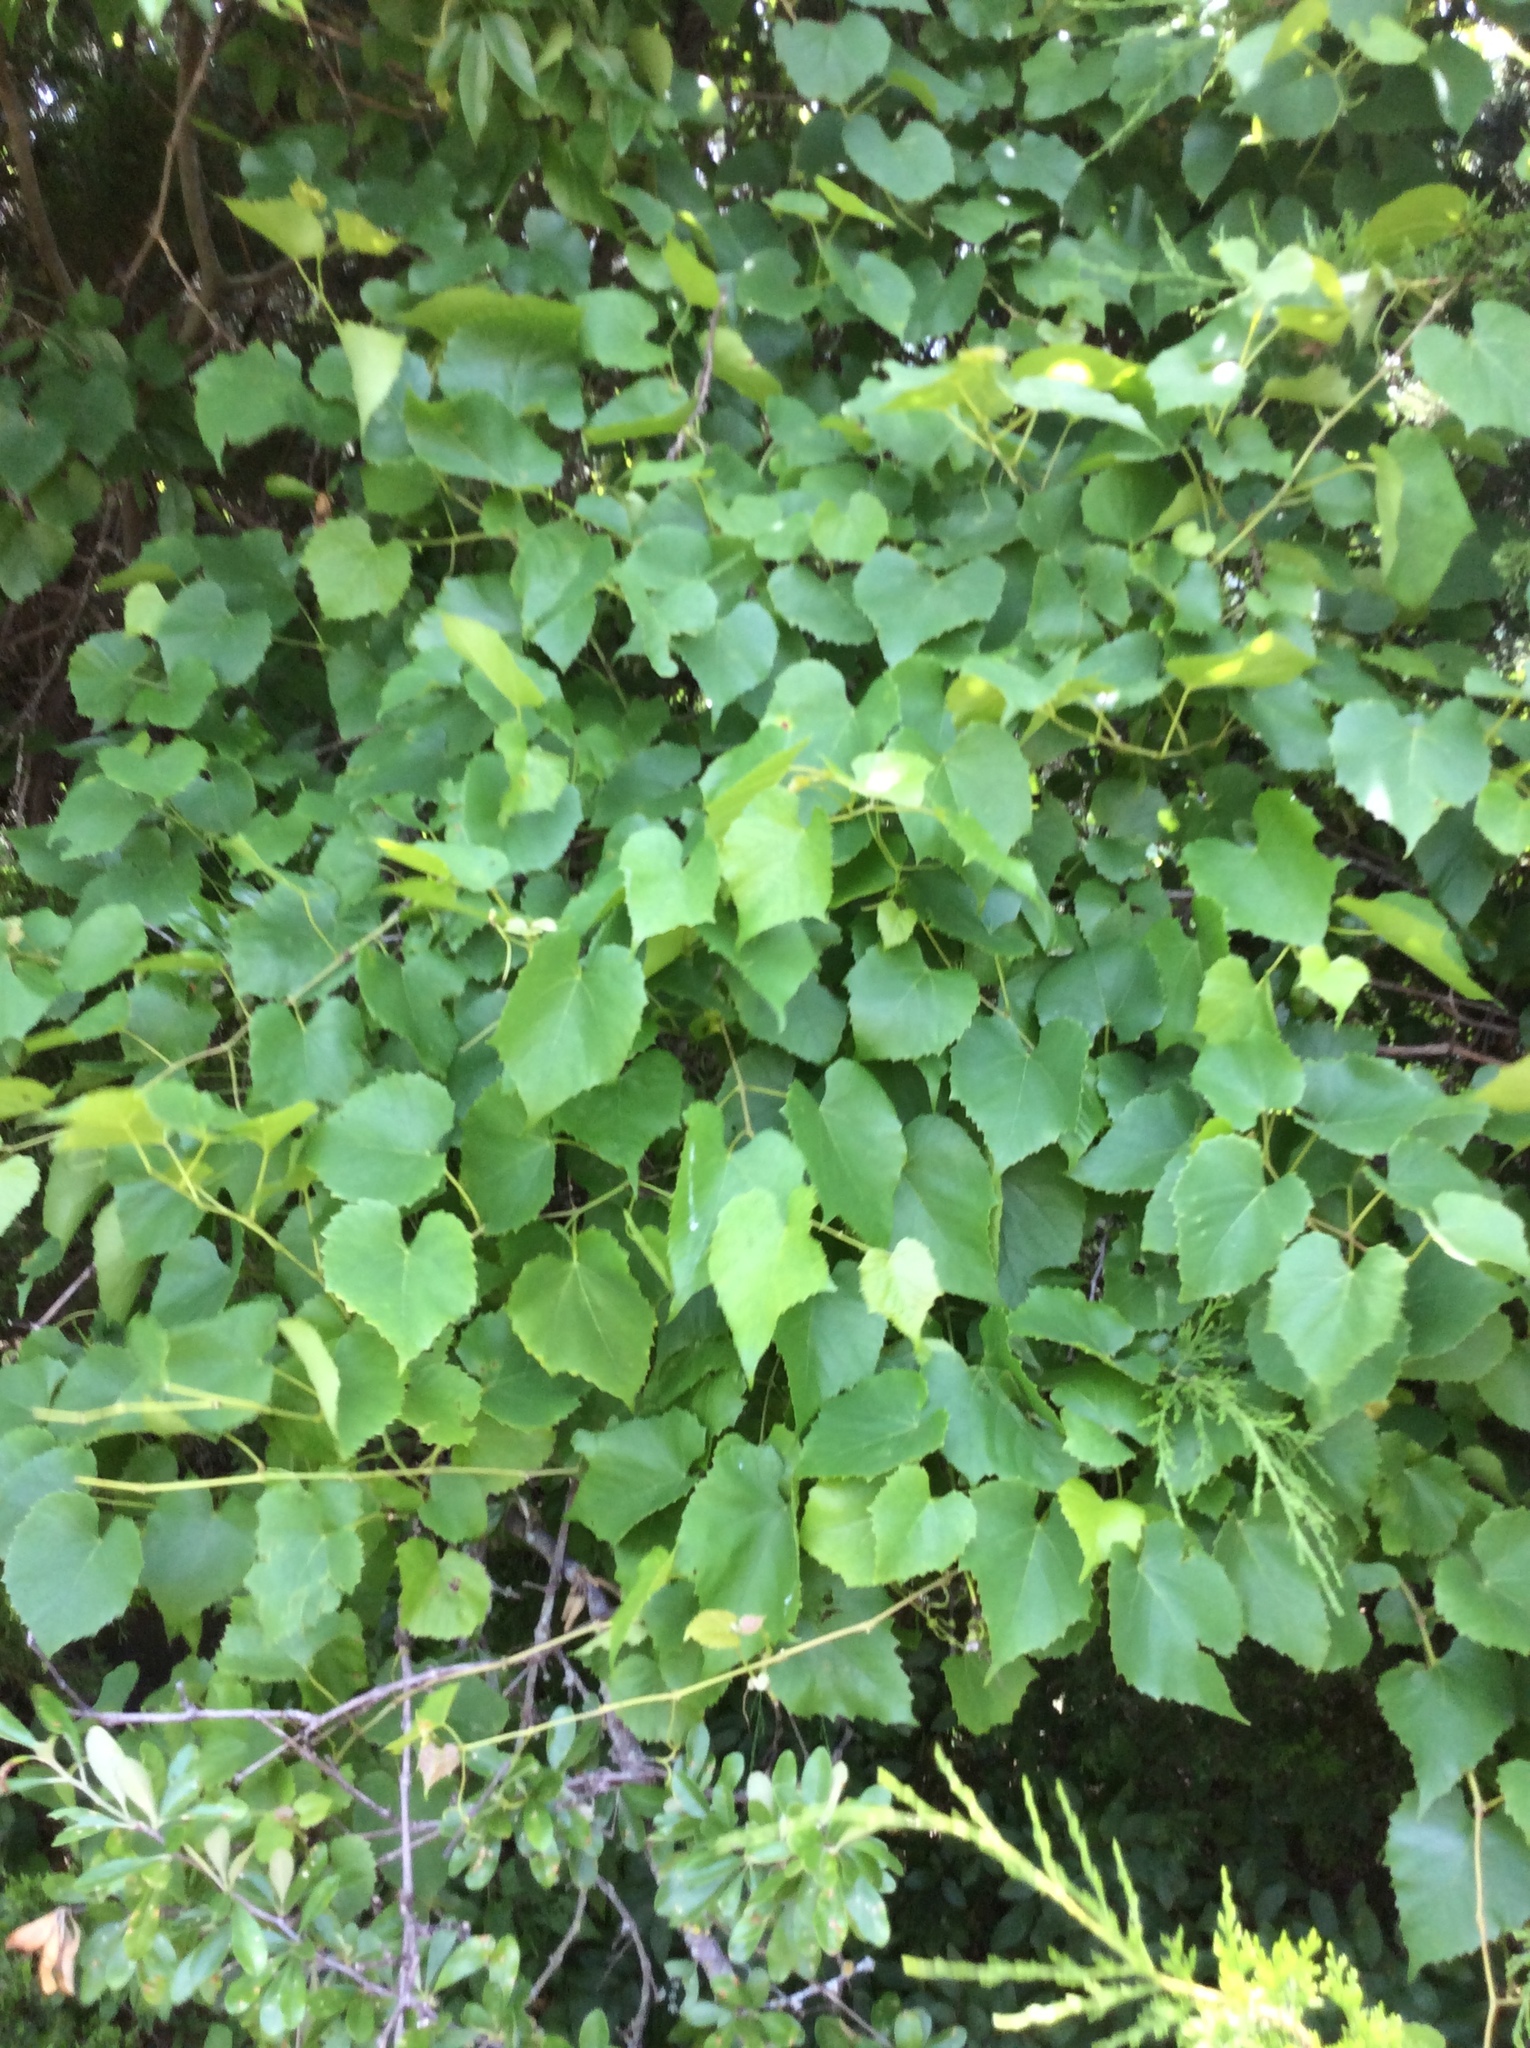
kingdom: Plantae
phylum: Tracheophyta
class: Magnoliopsida
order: Malpighiales
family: Salicaceae
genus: Populus
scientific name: Populus deltoides
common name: Eastern cottonwood
